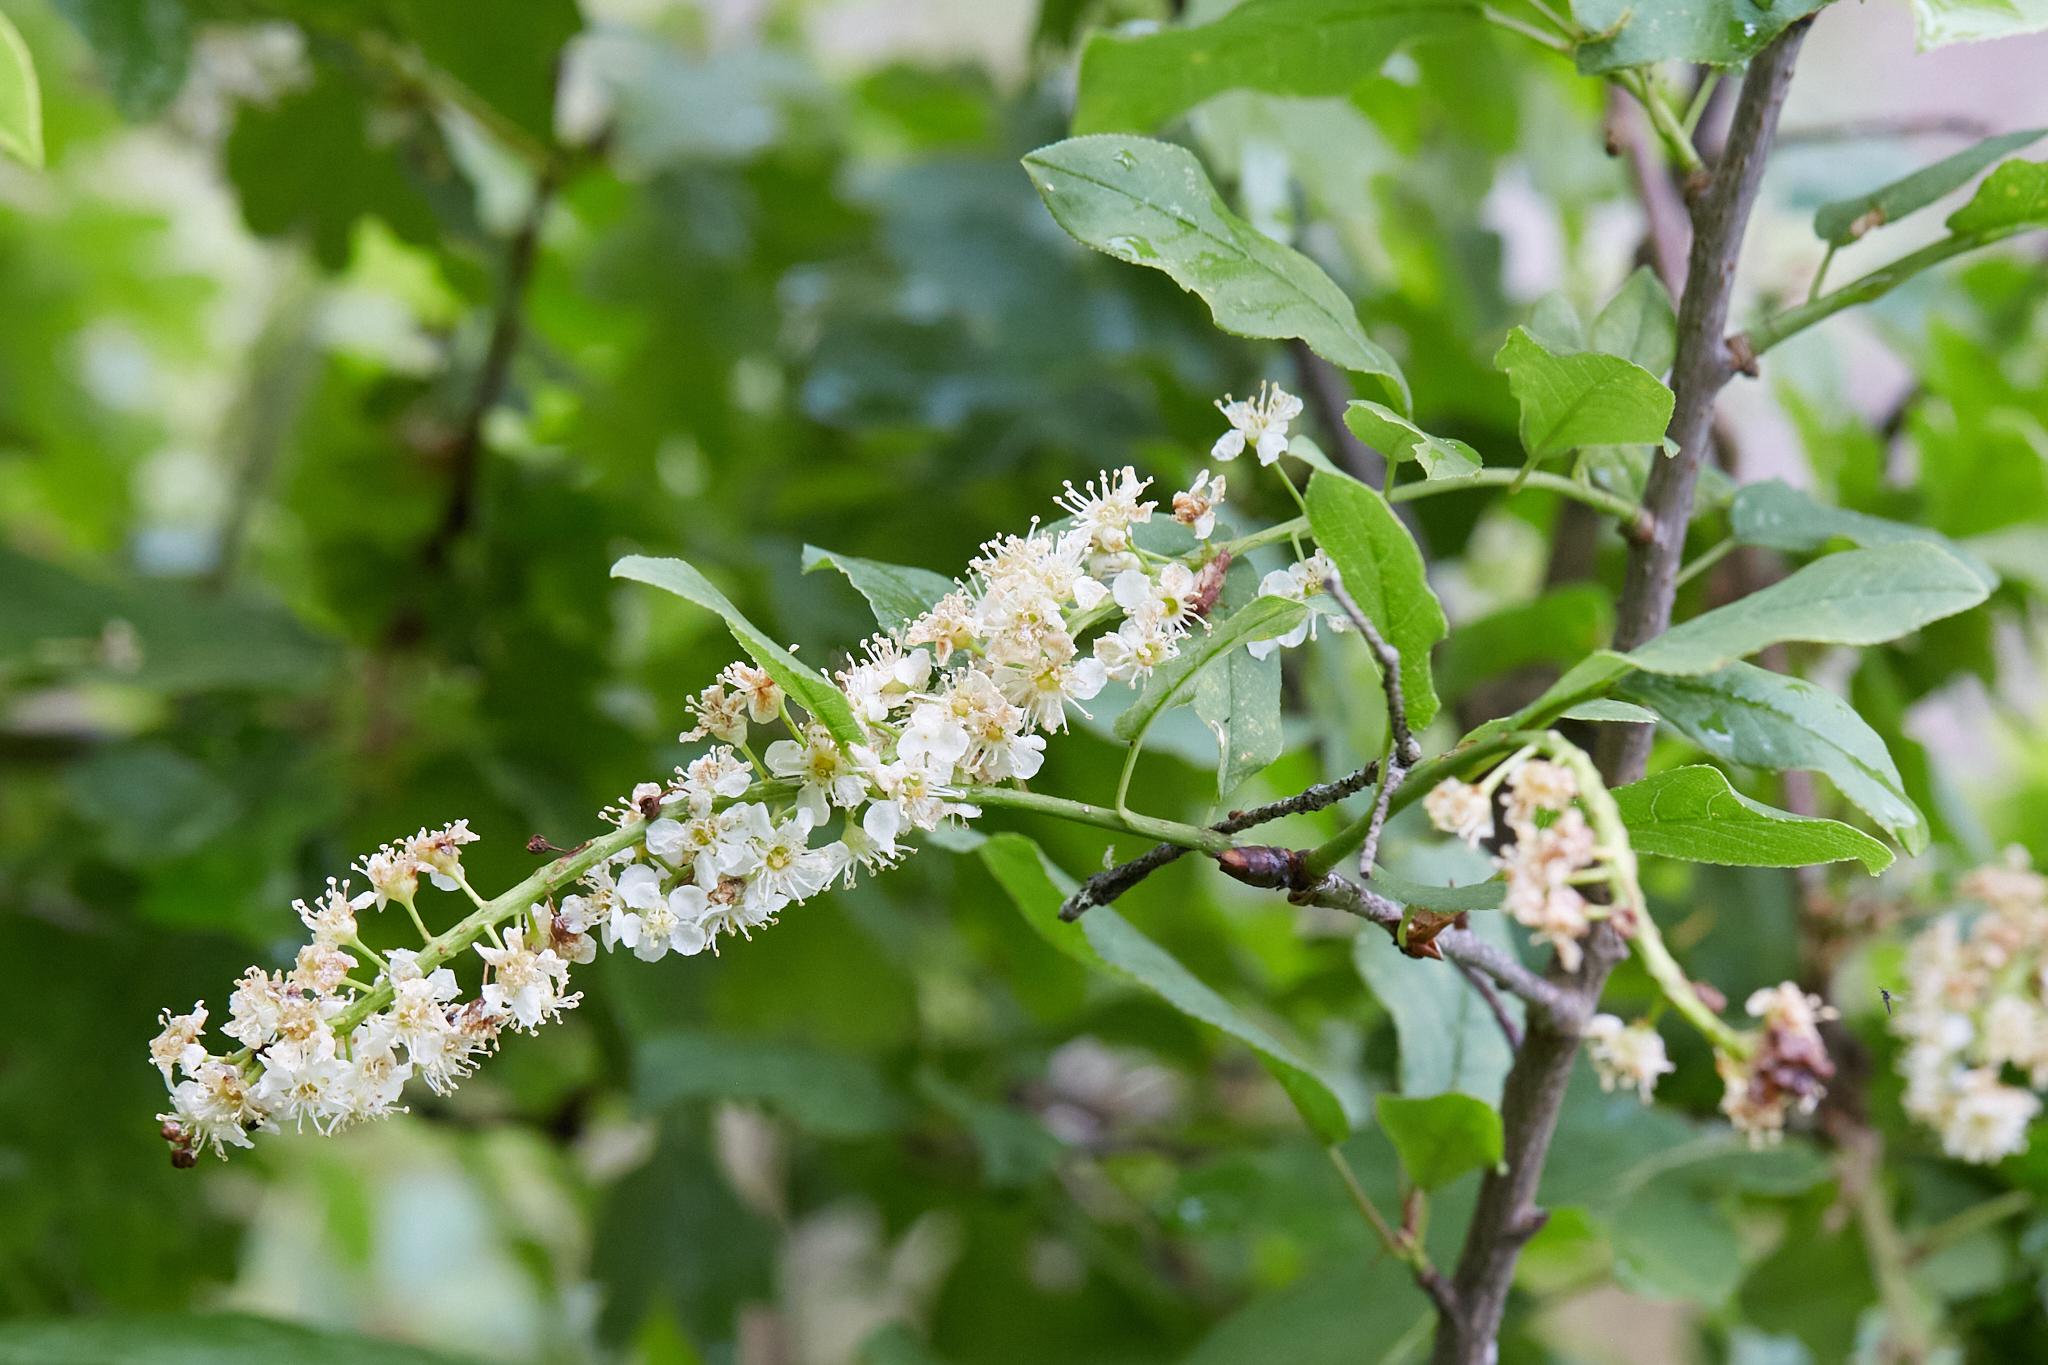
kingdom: Plantae
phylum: Tracheophyta
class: Magnoliopsida
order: Rosales
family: Rosaceae
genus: Prunus
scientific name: Prunus virginiana
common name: Chokecherry
